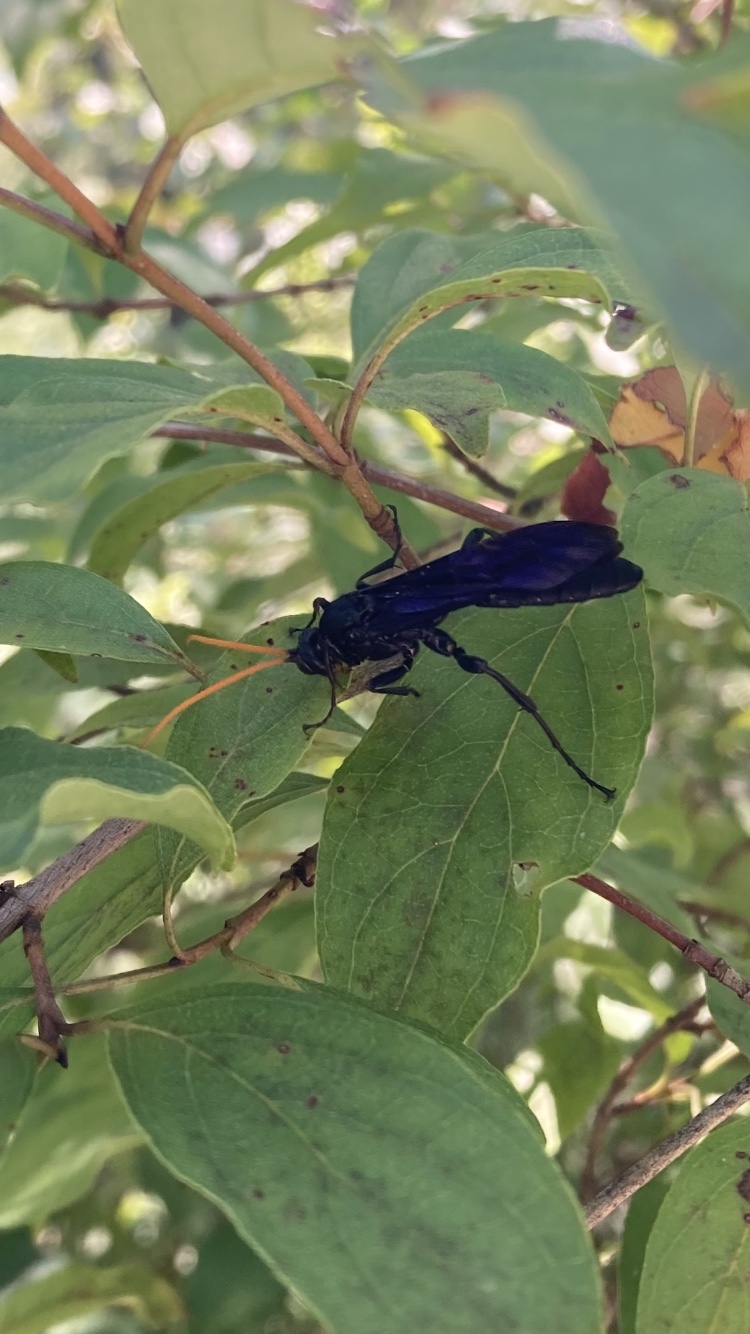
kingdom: Animalia
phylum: Arthropoda
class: Insecta
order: Hymenoptera
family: Ichneumonidae
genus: Gnamptopelta
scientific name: Gnamptopelta obsidianator
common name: Bent-shielded besieger wasp
